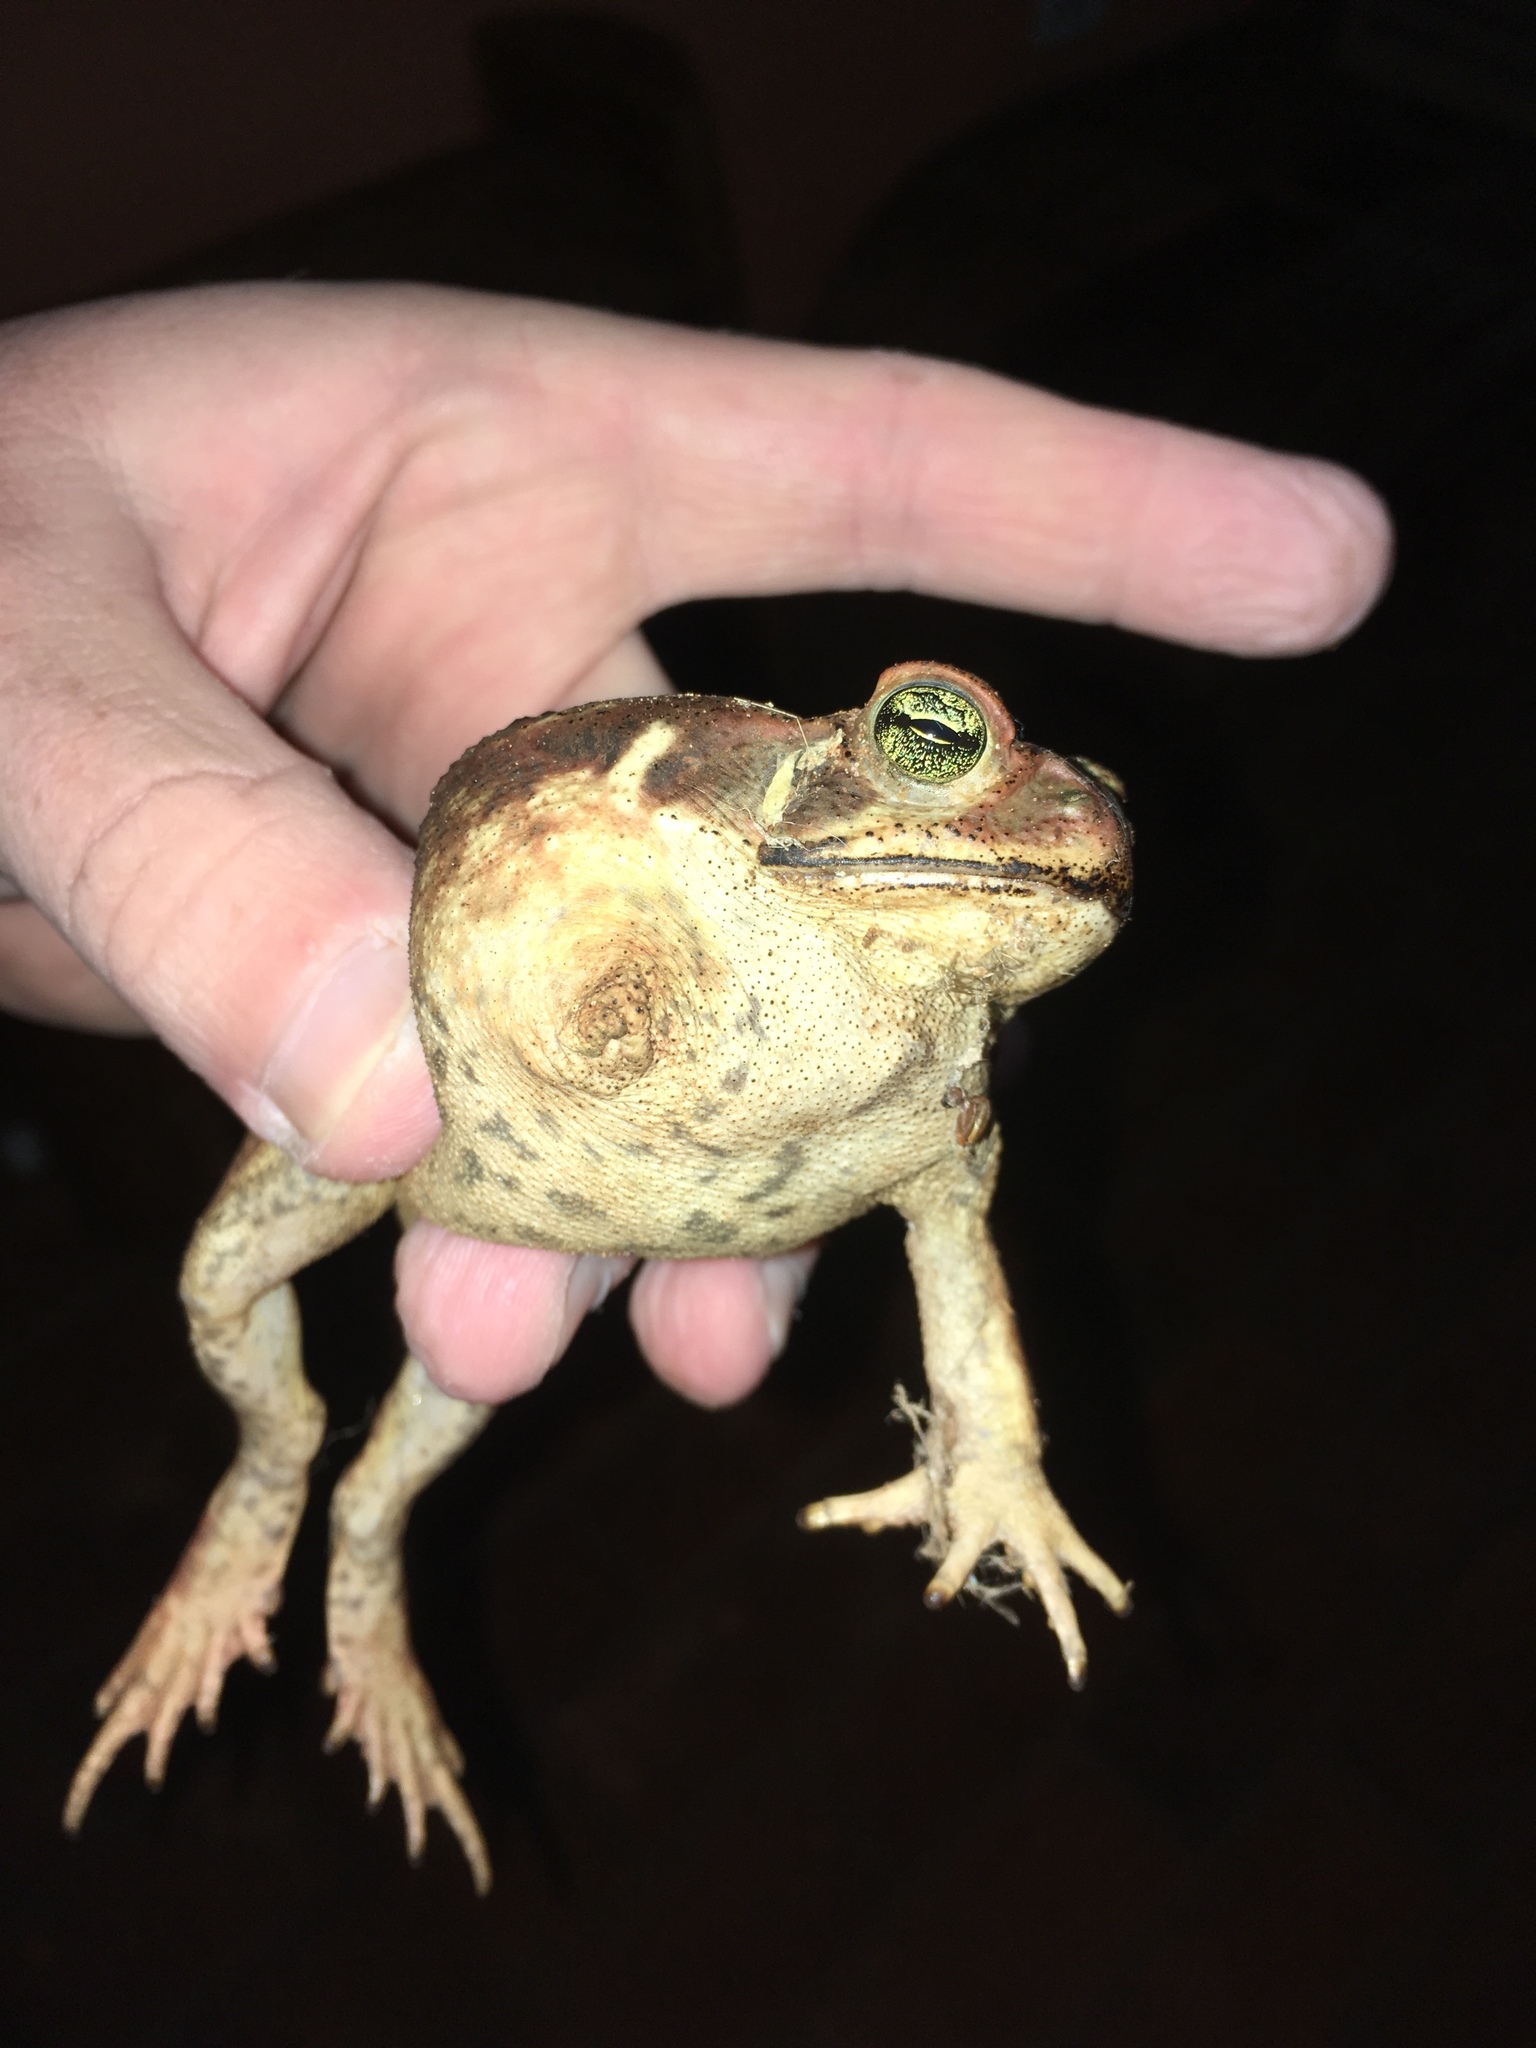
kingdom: Animalia
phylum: Chordata
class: Amphibia
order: Anura
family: Bufonidae
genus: Rhinella
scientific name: Rhinella diptycha
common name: Cope's toad
